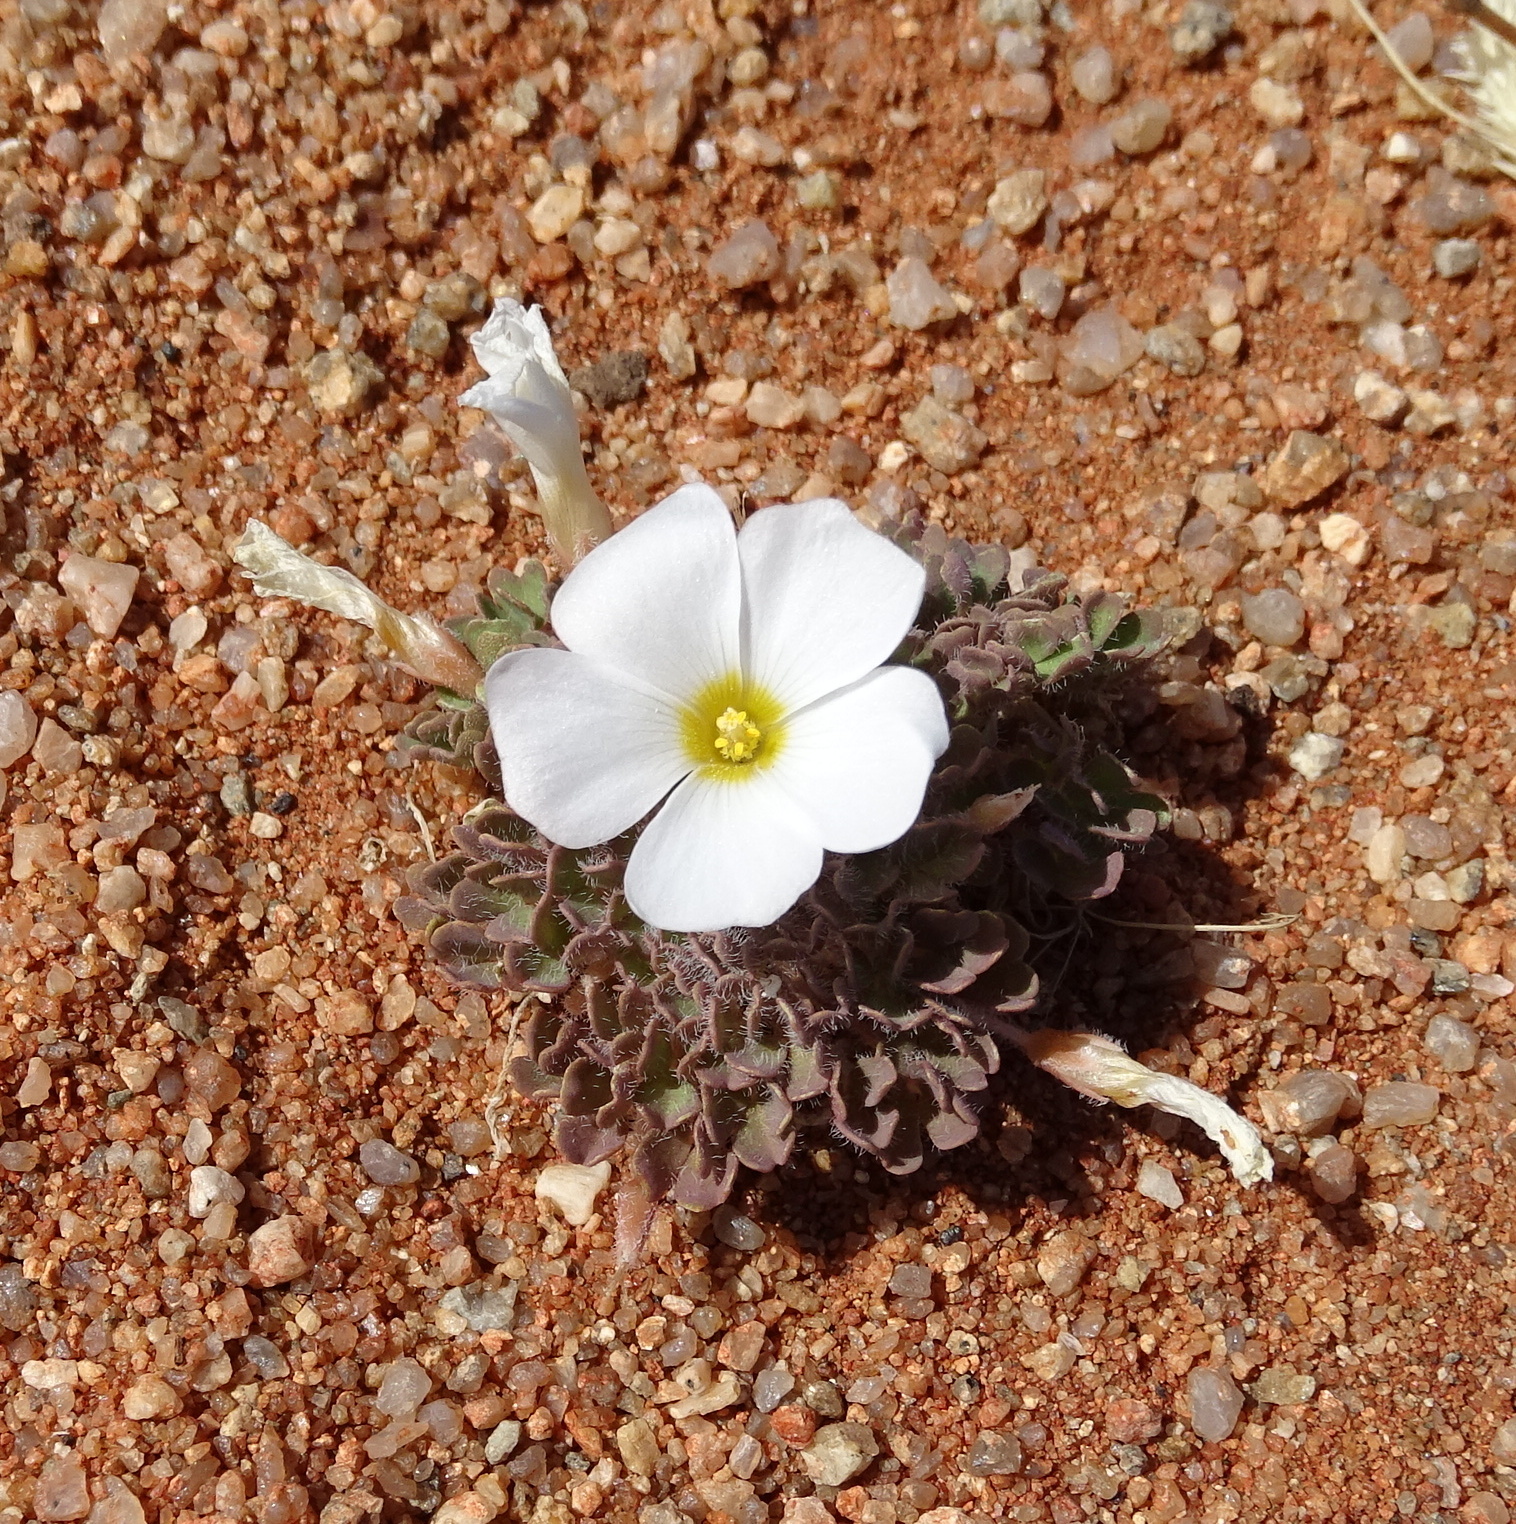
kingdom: Plantae
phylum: Tracheophyta
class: Magnoliopsida
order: Oxalidales
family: Oxalidaceae
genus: Oxalis
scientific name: Oxalis annae
